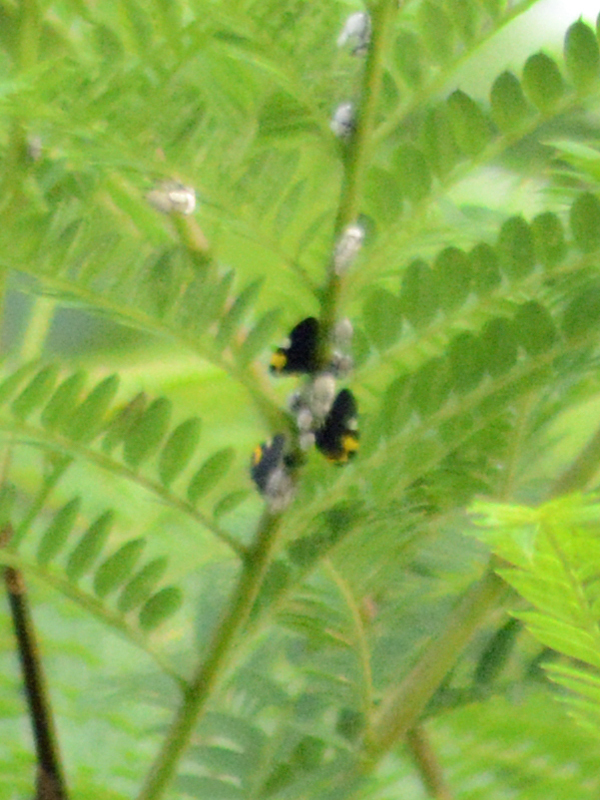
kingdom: Animalia
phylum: Arthropoda
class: Insecta
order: Hemiptera
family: Membracidae
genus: Membracis
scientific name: Membracis mexicana
